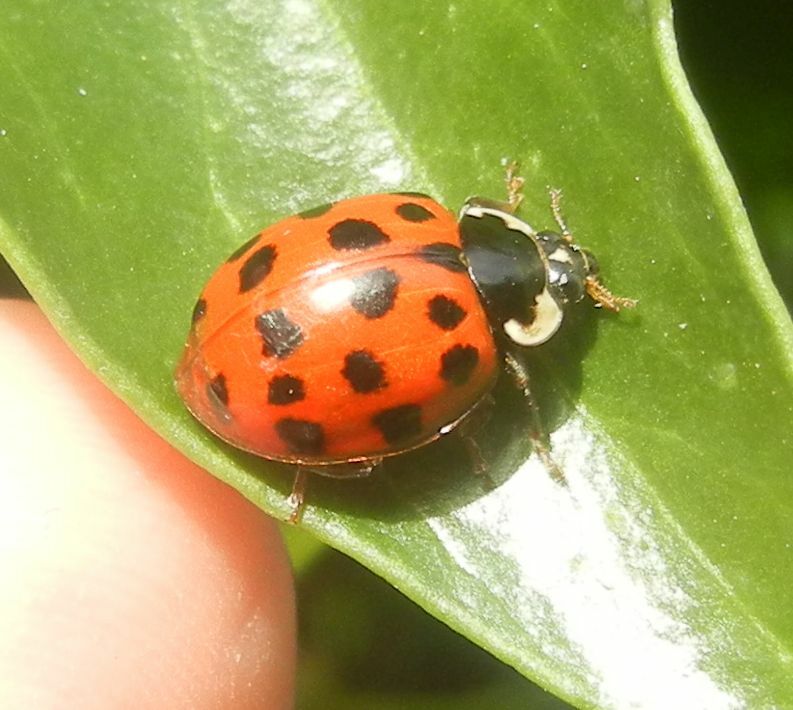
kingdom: Animalia
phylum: Arthropoda
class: Insecta
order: Coleoptera
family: Coccinellidae
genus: Harmonia
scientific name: Harmonia axyridis
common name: Harlequin ladybird
